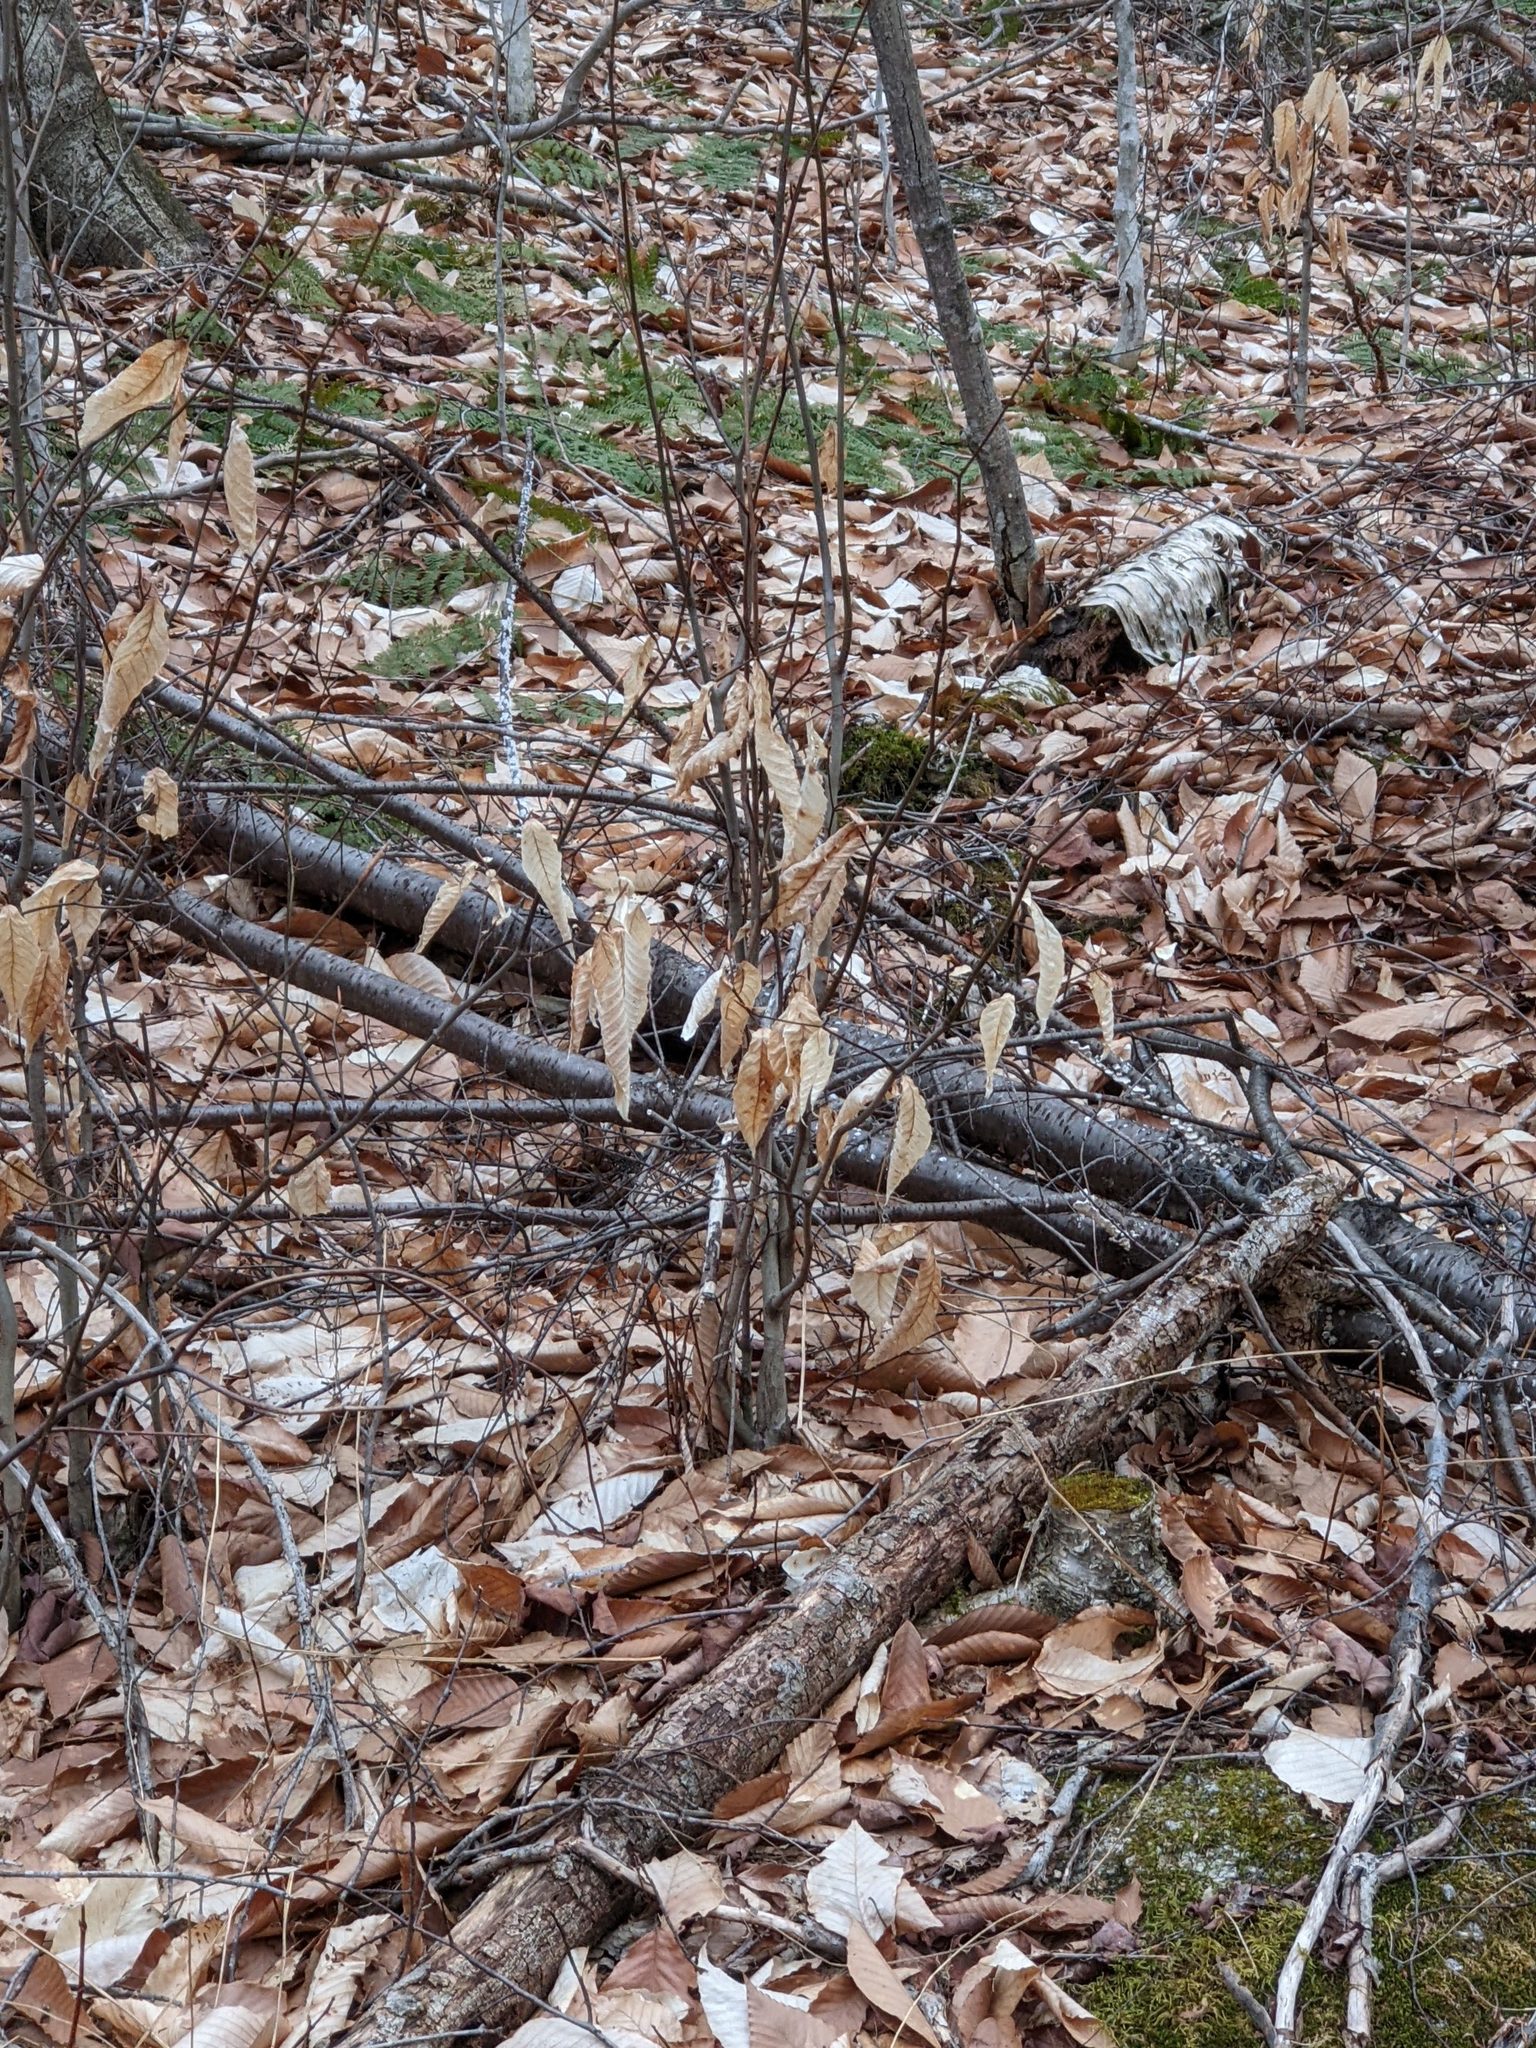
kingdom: Plantae
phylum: Tracheophyta
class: Magnoliopsida
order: Fagales
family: Fagaceae
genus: Fagus
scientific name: Fagus grandifolia
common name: American beech
